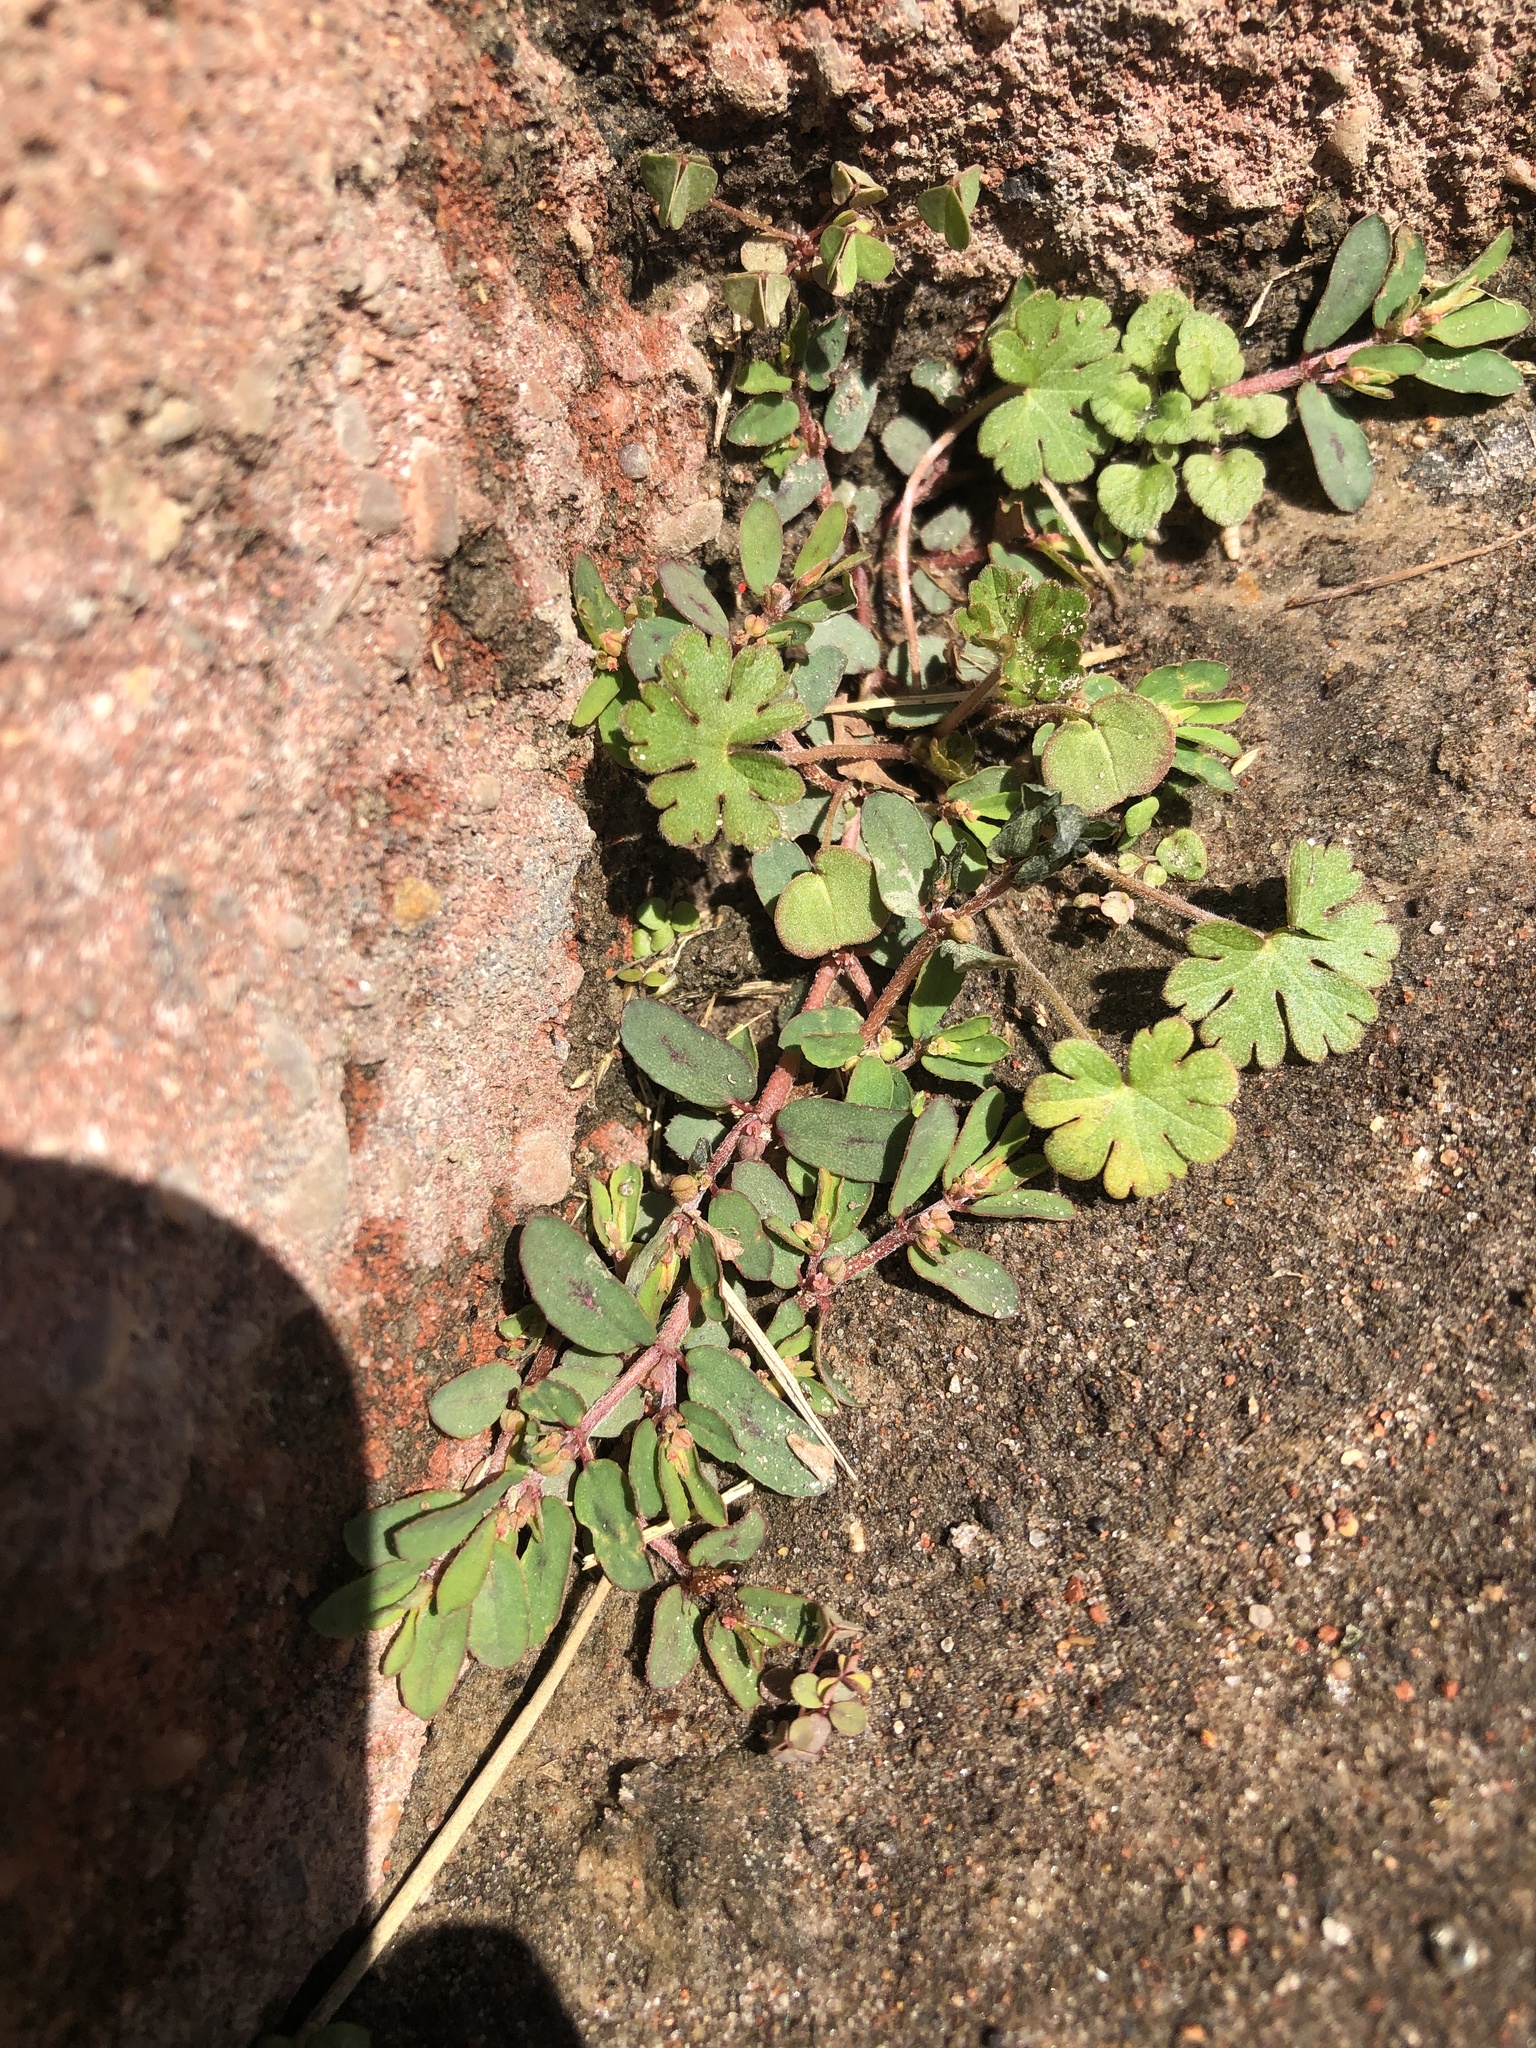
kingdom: Plantae
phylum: Tracheophyta
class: Magnoliopsida
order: Malpighiales
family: Euphorbiaceae
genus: Euphorbia
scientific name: Euphorbia maculata
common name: Spotted spurge
